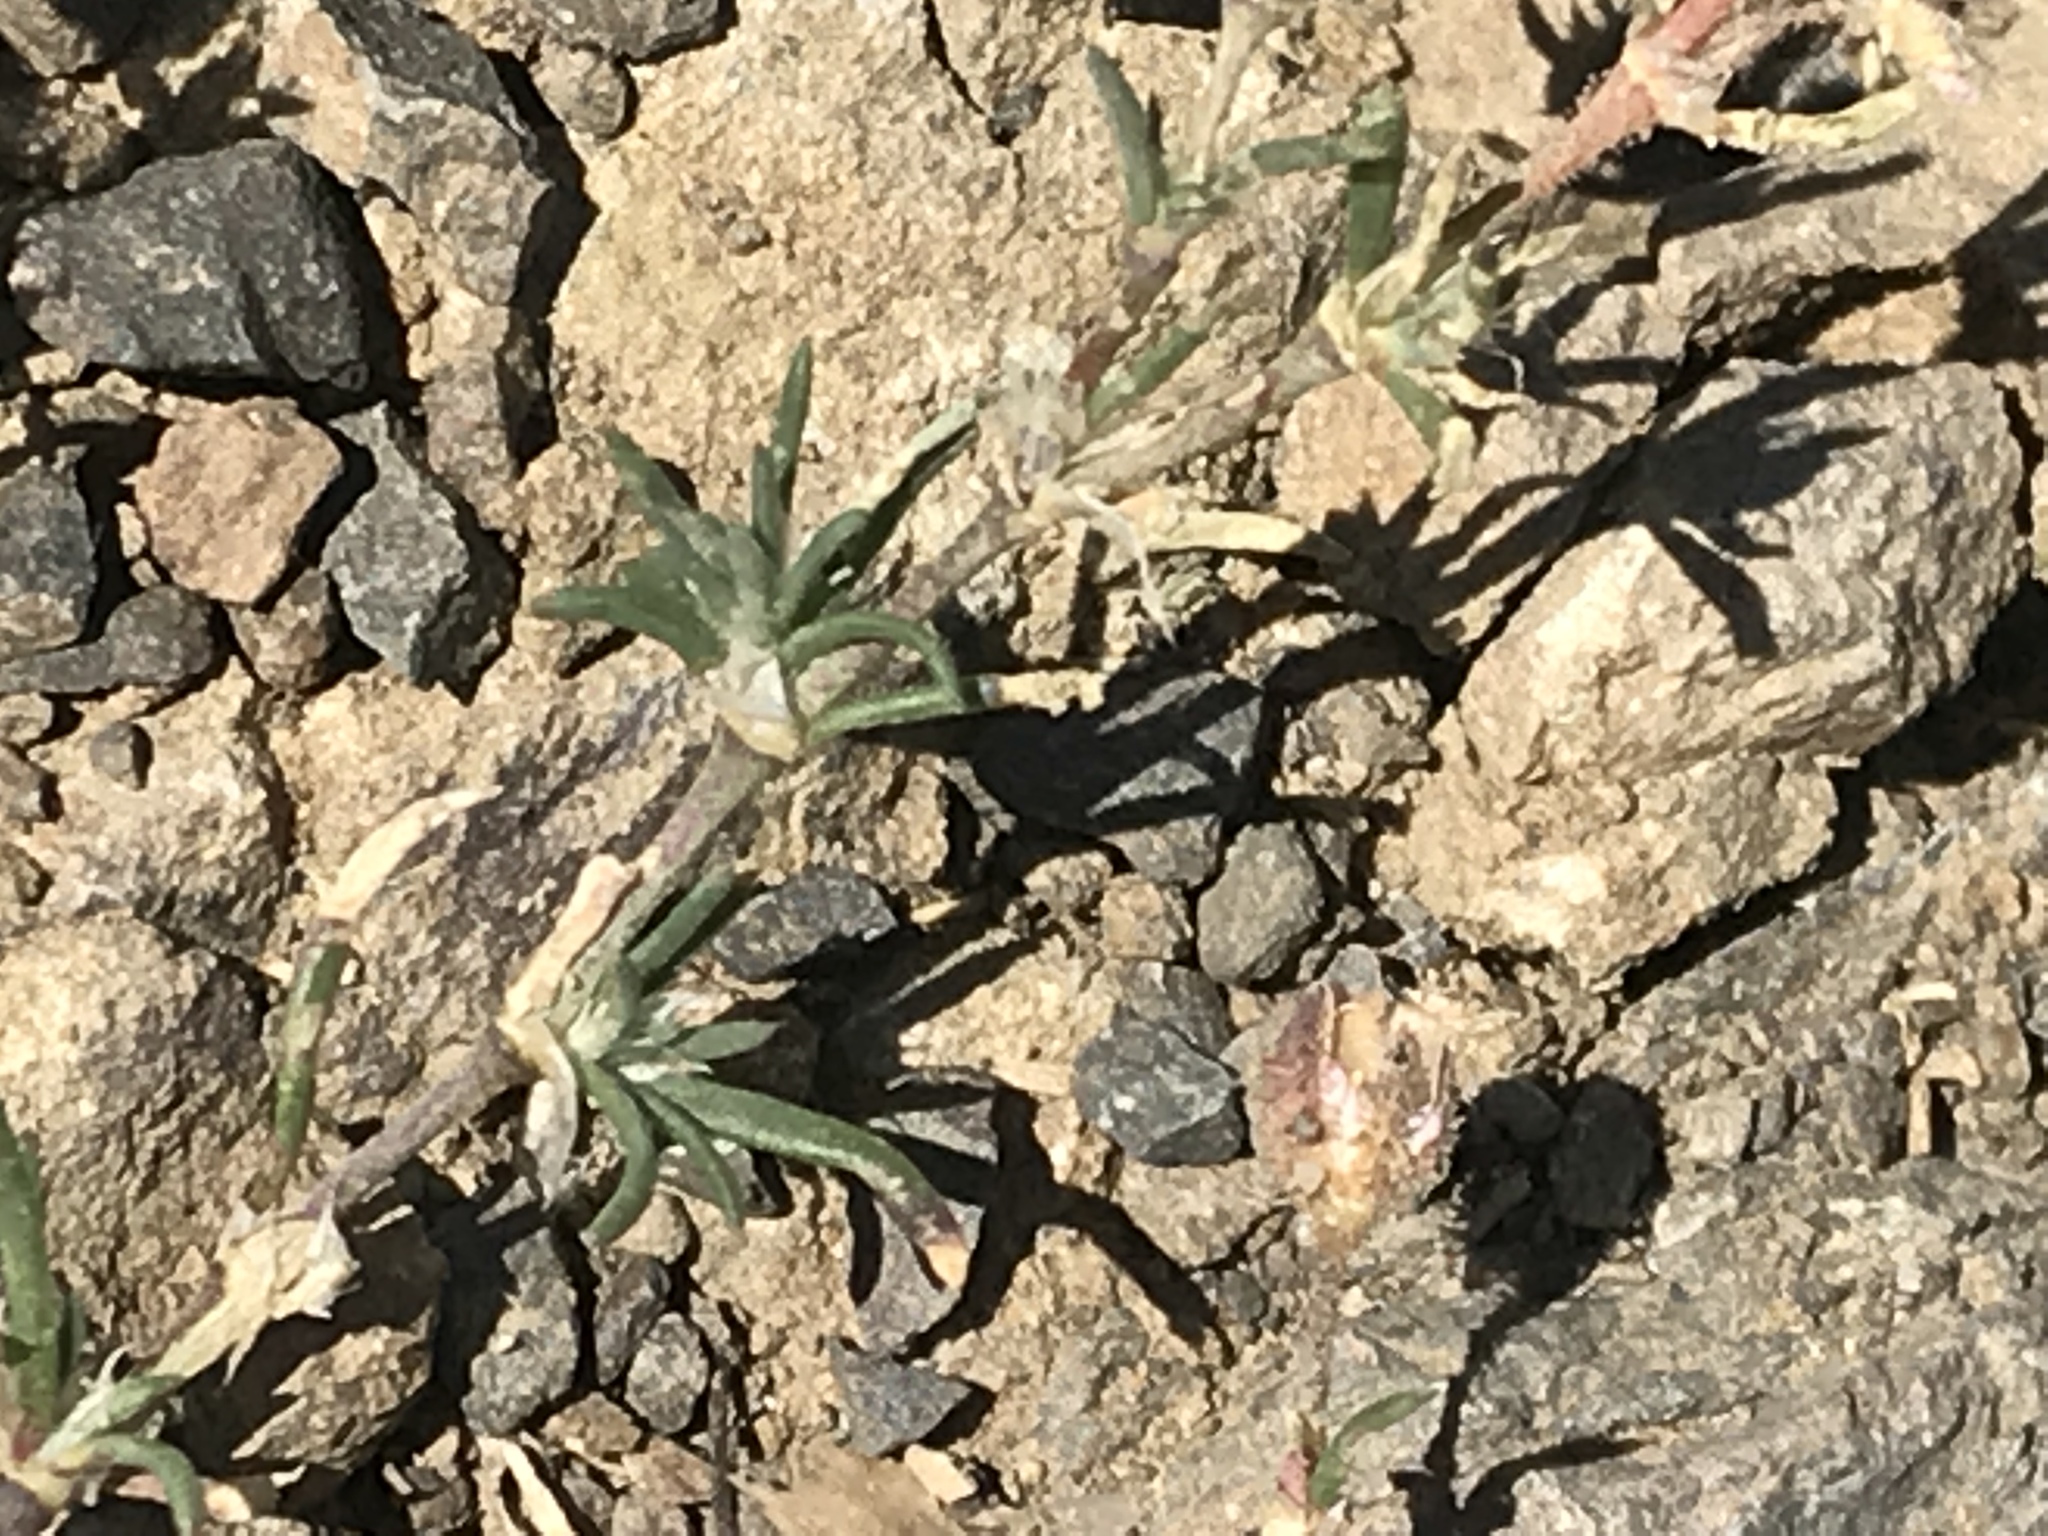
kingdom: Plantae
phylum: Tracheophyta
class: Magnoliopsida
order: Caryophyllales
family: Caryophyllaceae
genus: Spergularia
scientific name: Spergularia rubra
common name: Red sand-spurrey
